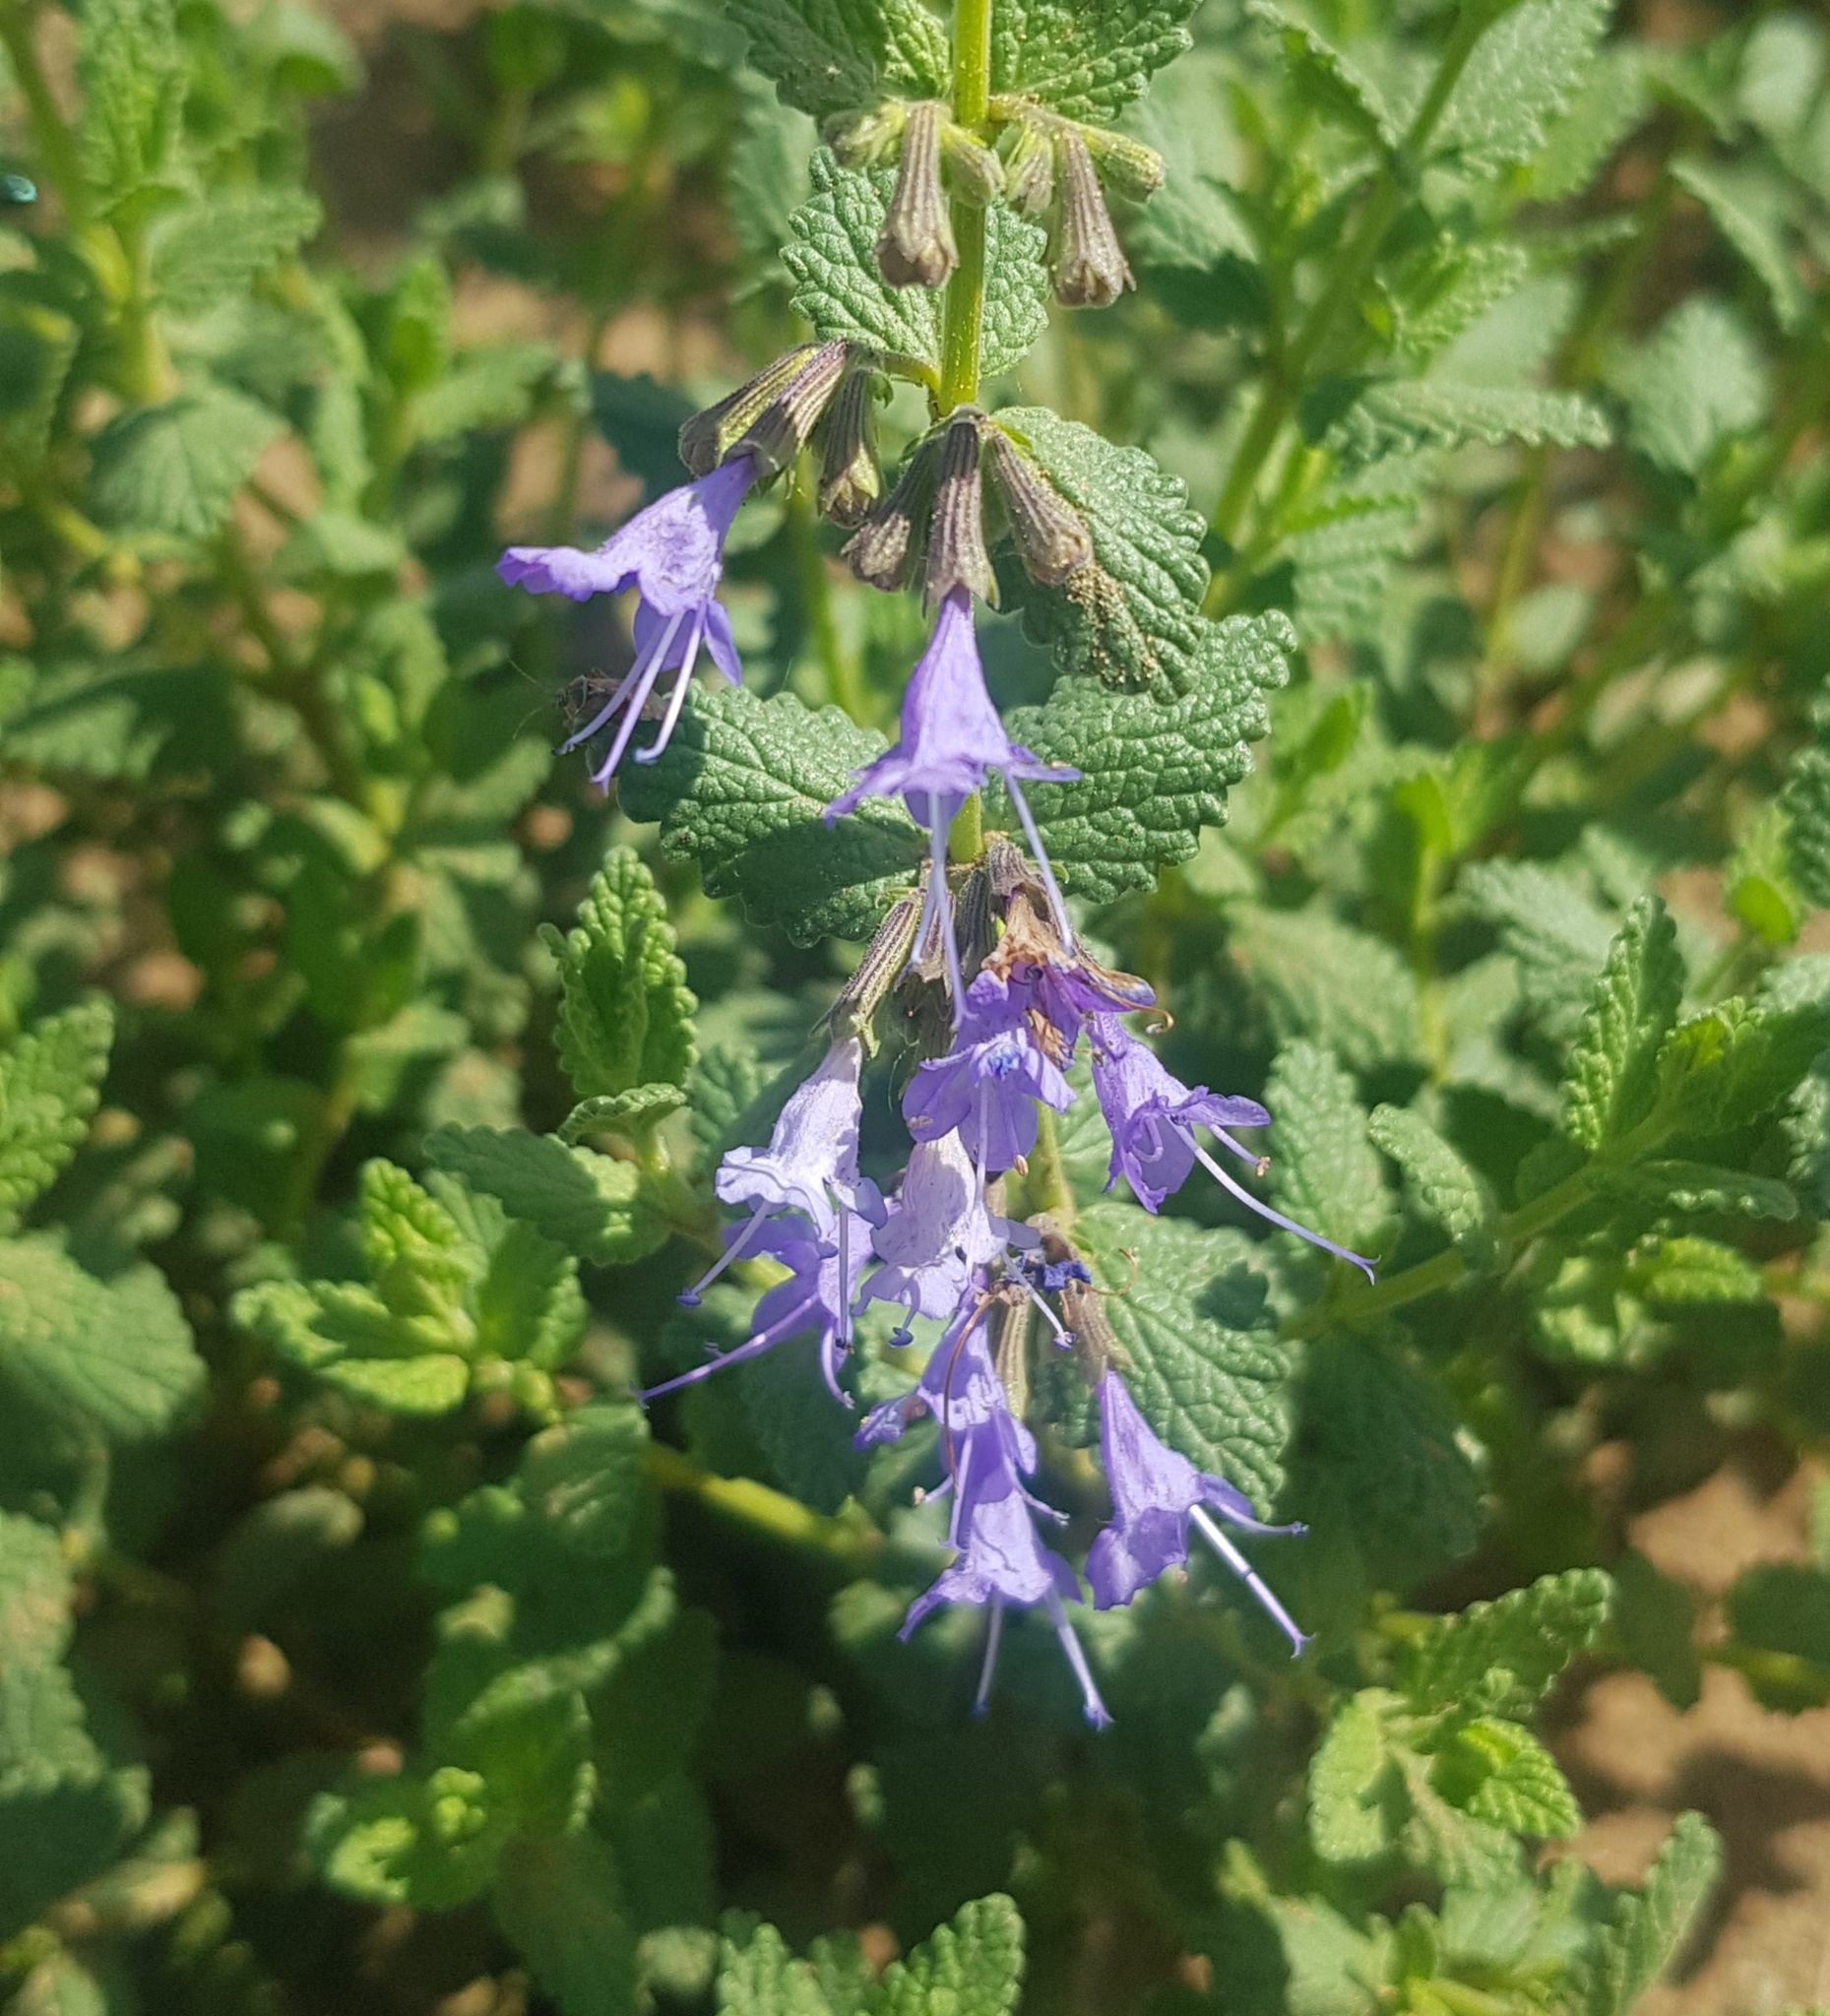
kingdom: Plantae
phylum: Tracheophyta
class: Magnoliopsida
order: Lamiales
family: Lamiaceae
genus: Nepeta
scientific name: Nepeta lophanthus
